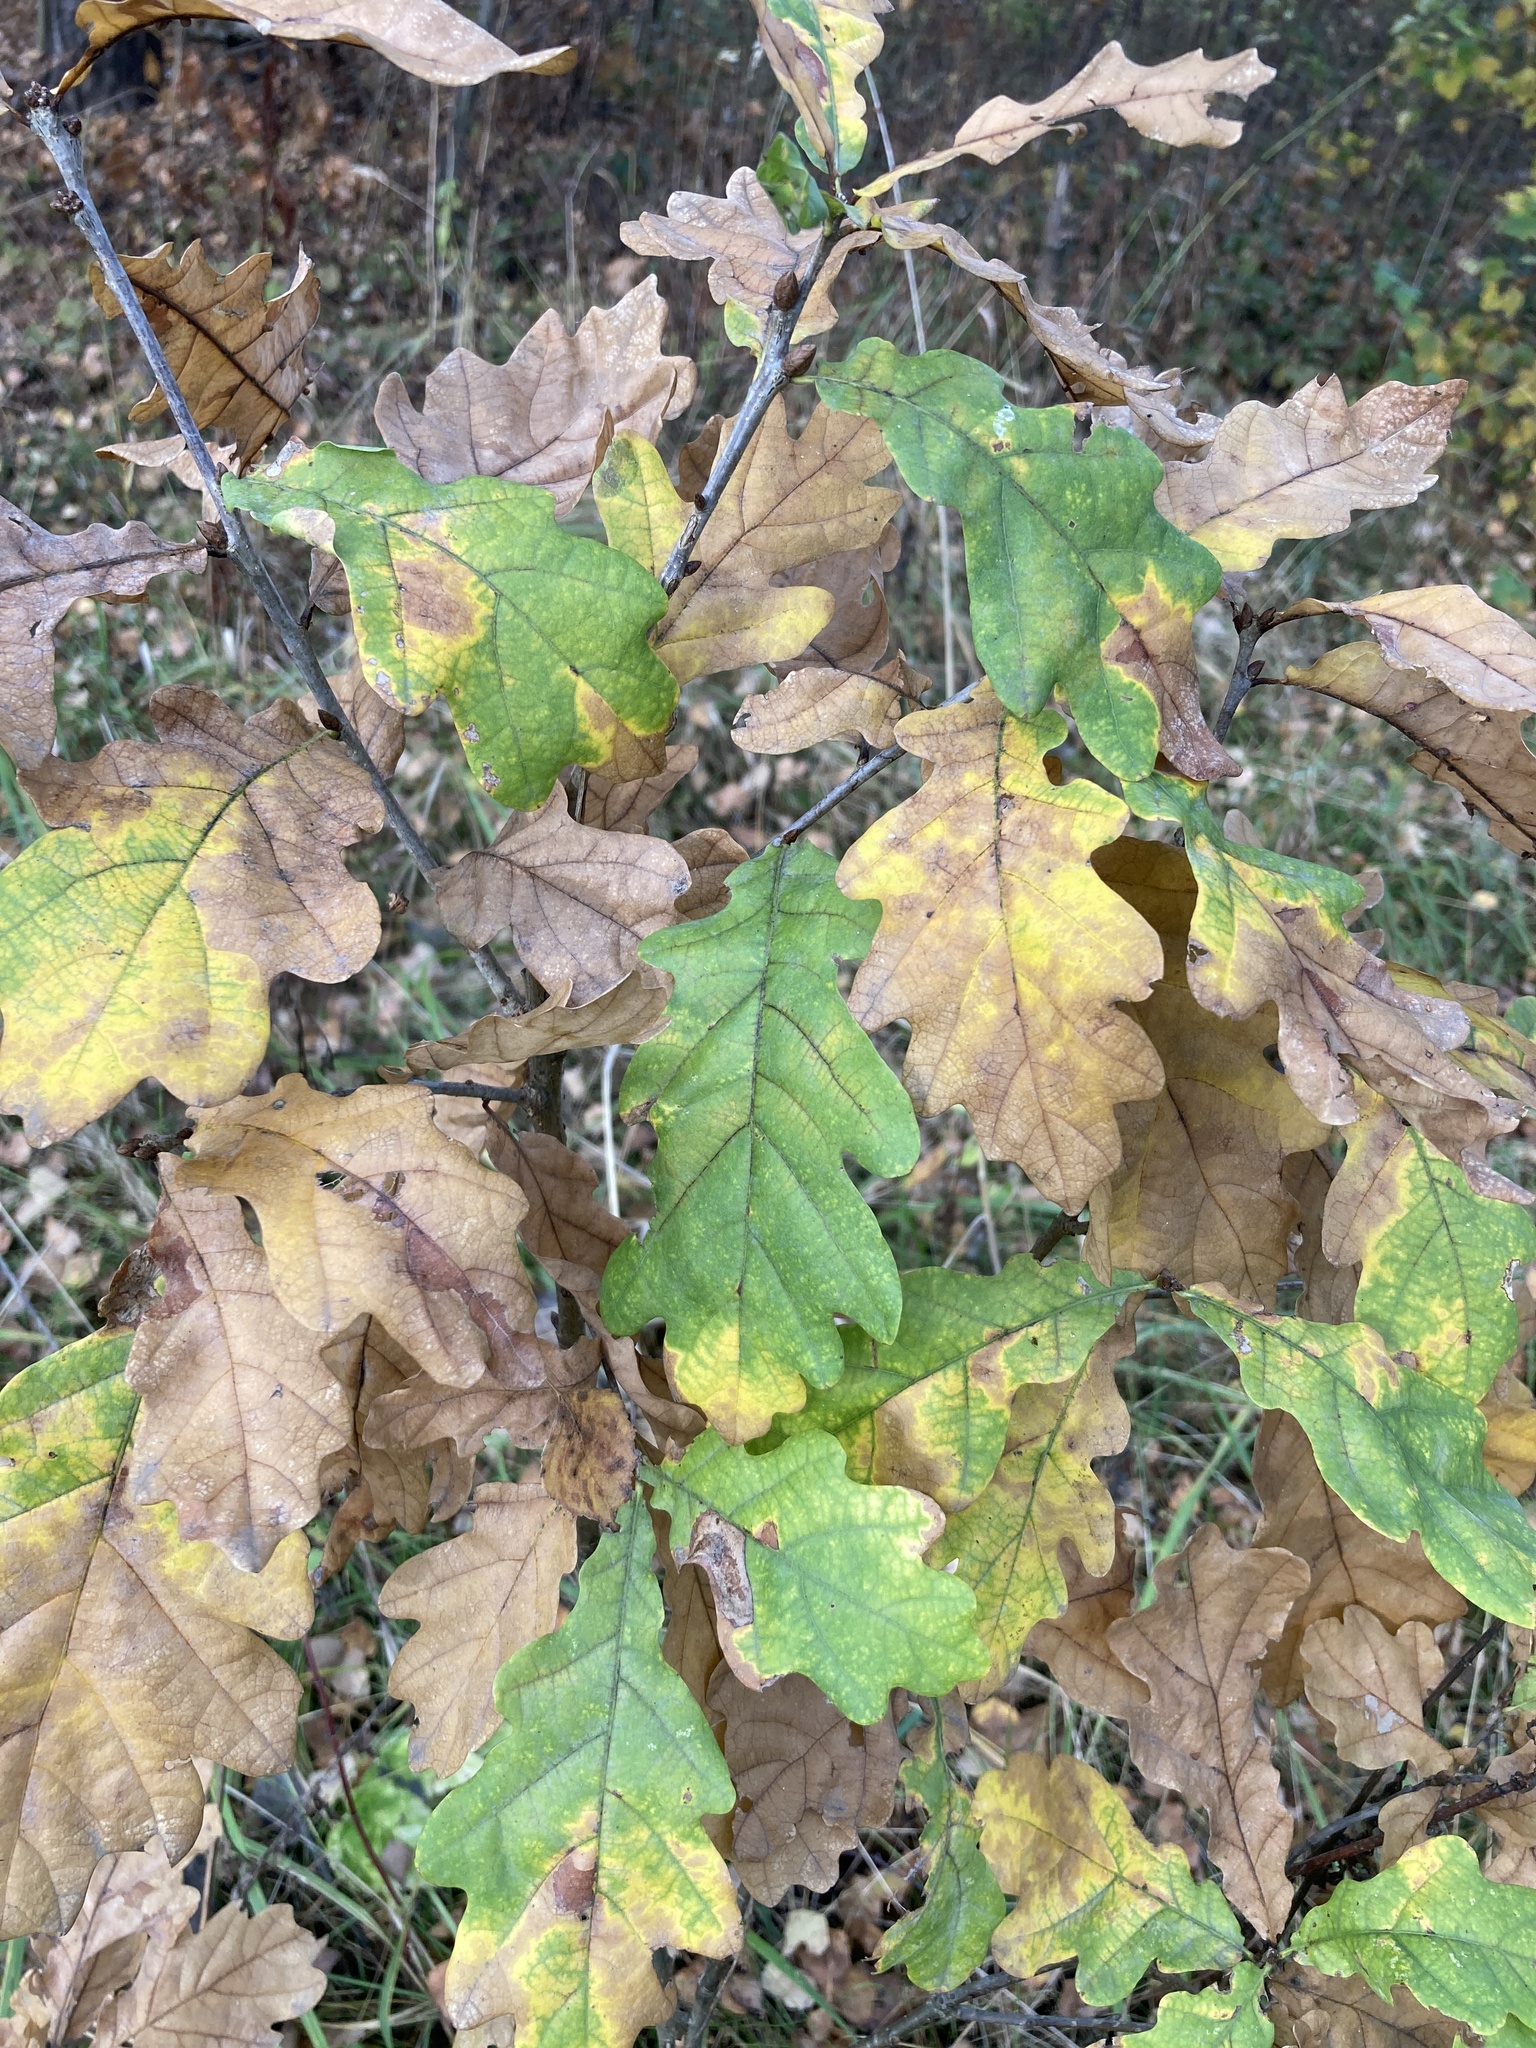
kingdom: Plantae
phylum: Tracheophyta
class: Magnoliopsida
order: Fagales
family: Fagaceae
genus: Quercus
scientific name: Quercus robur
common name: Pedunculate oak
